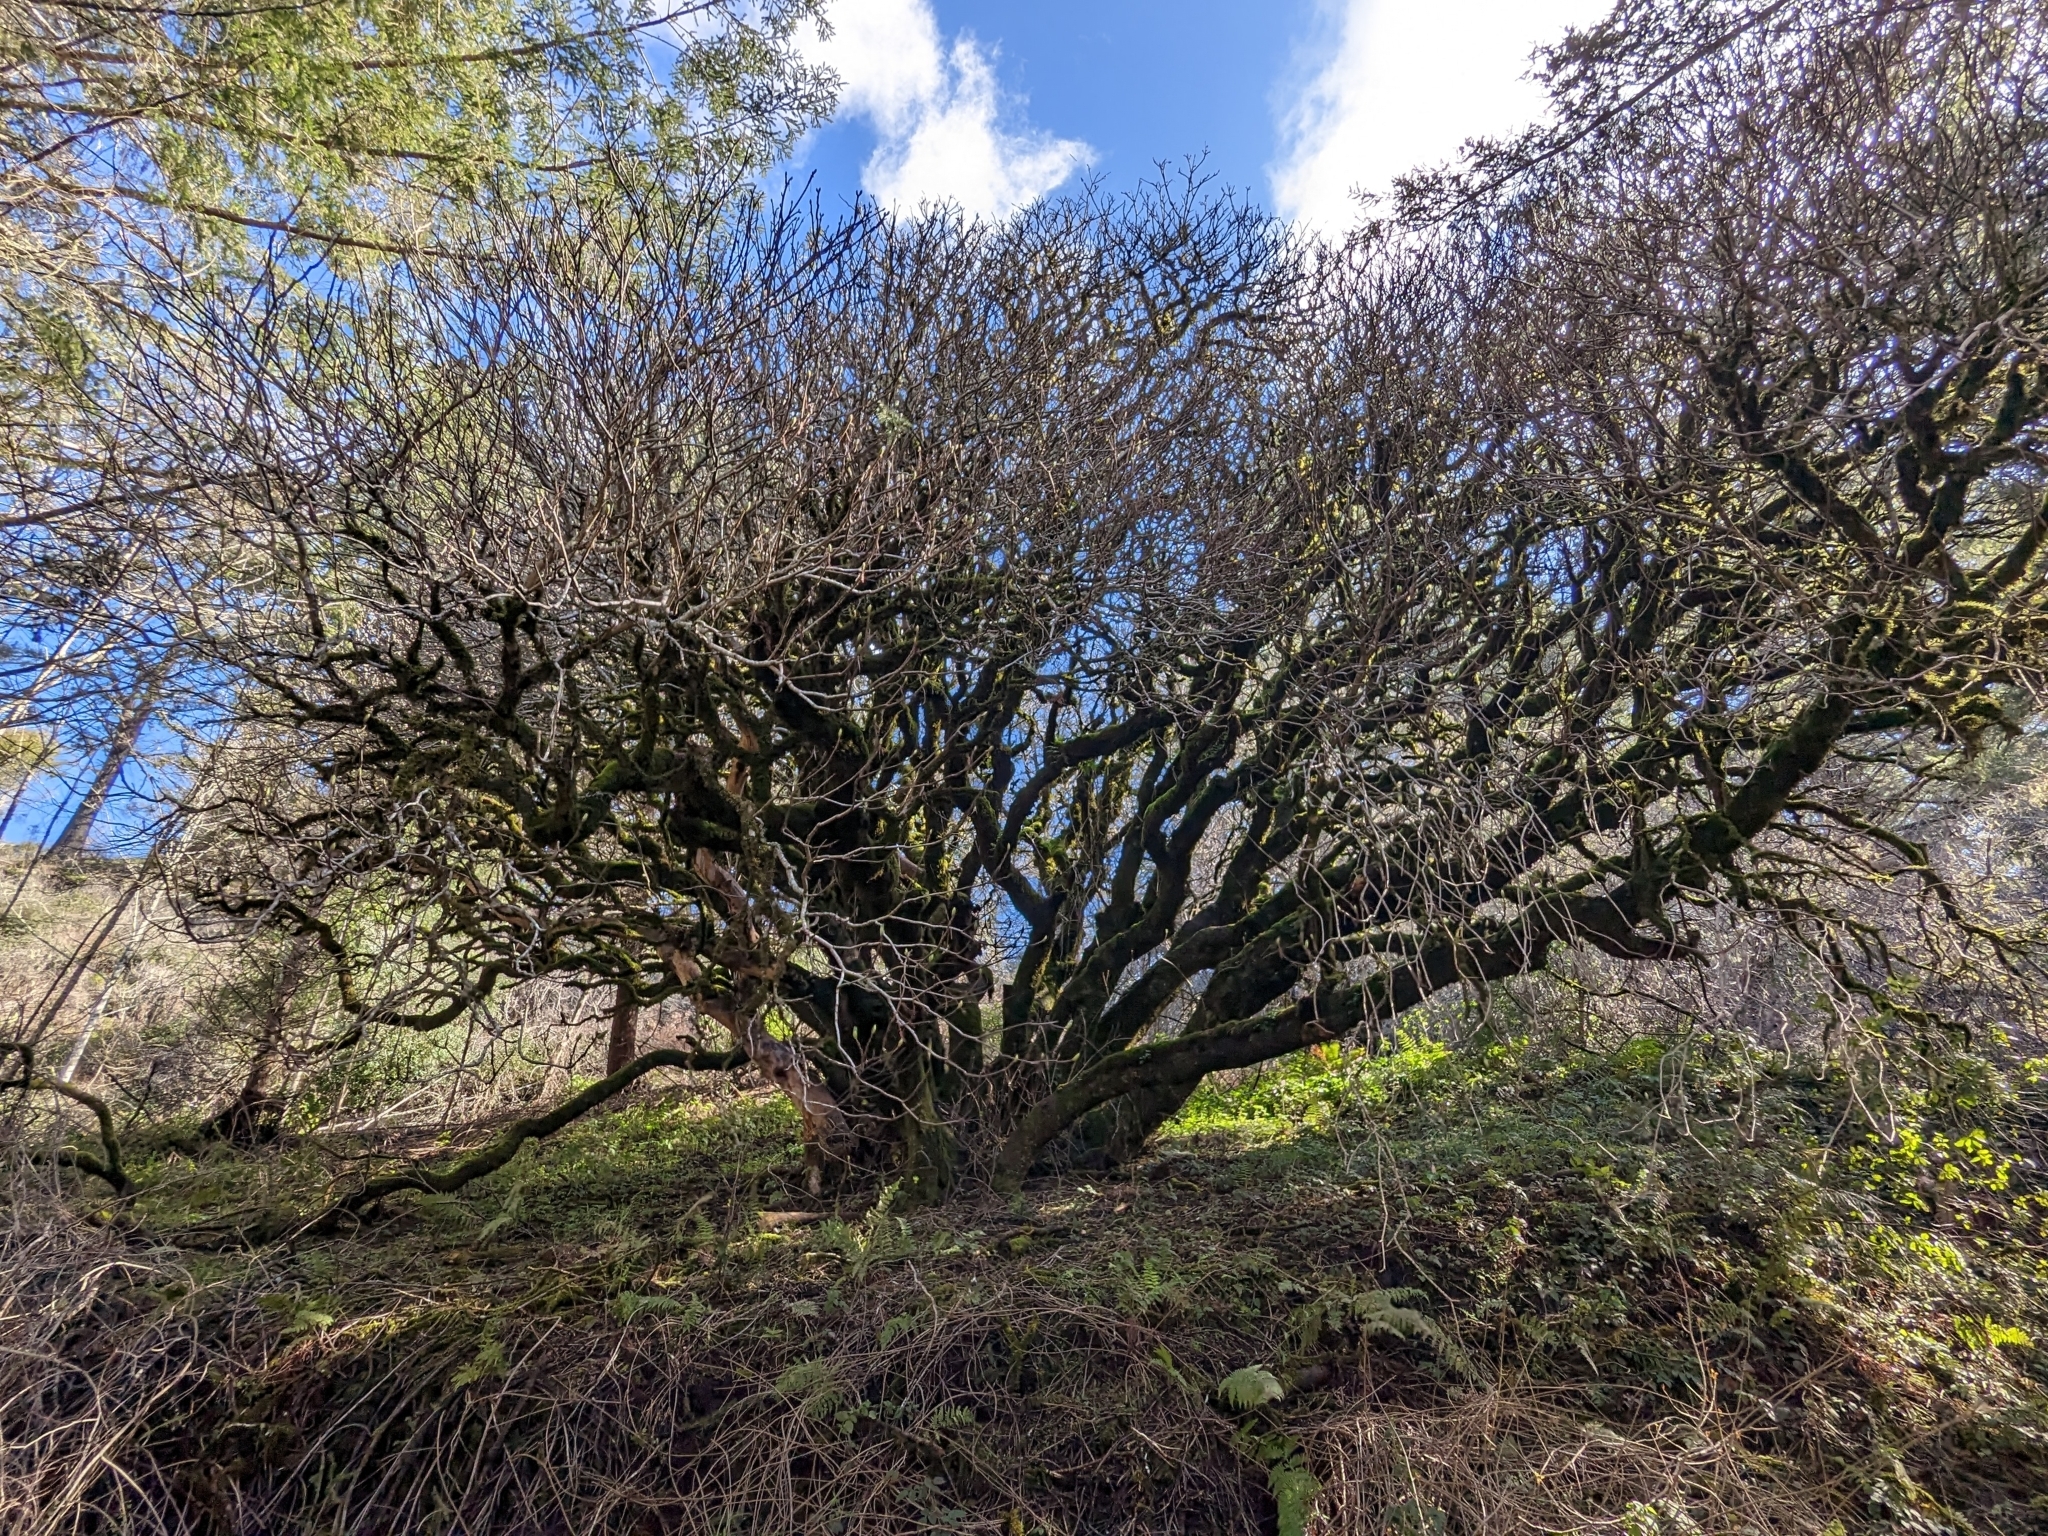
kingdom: Plantae
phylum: Tracheophyta
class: Magnoliopsida
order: Sapindales
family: Sapindaceae
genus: Aesculus
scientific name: Aesculus californica
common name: California buckeye
